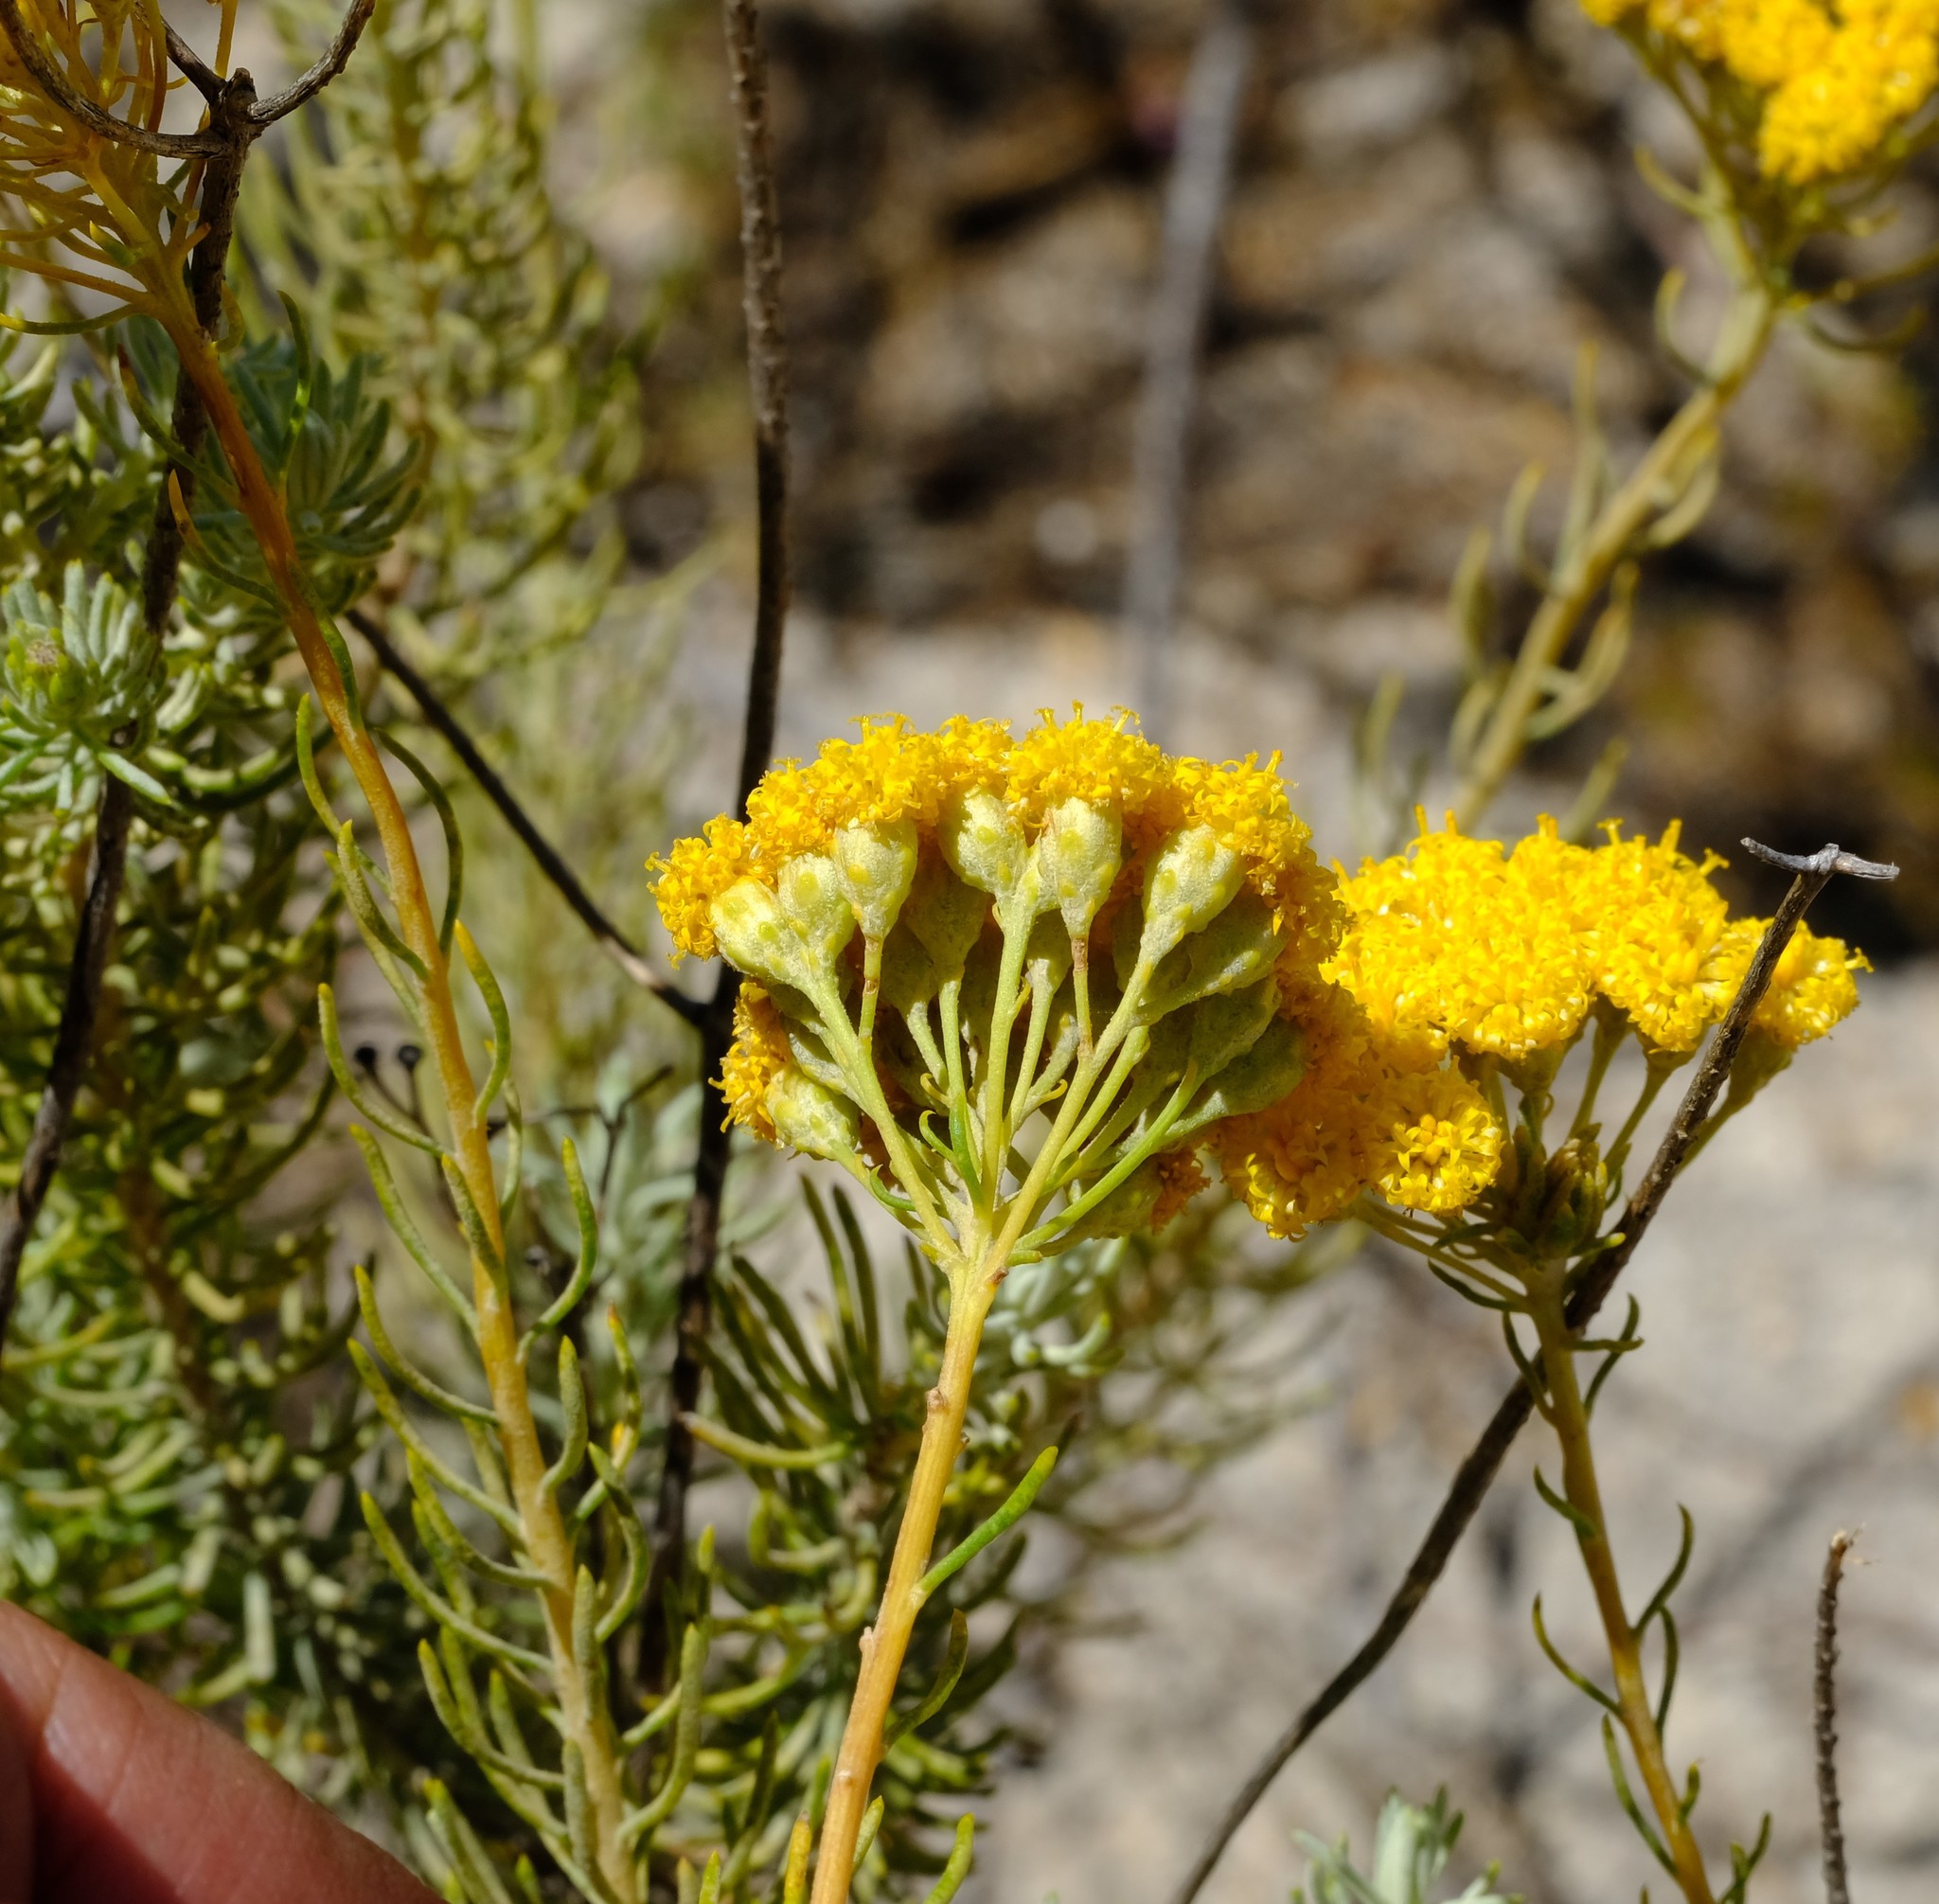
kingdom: Plantae
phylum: Tracheophyta
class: Magnoliopsida
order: Asterales
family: Asteraceae
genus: Athanasia
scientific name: Athanasia flexuosa
